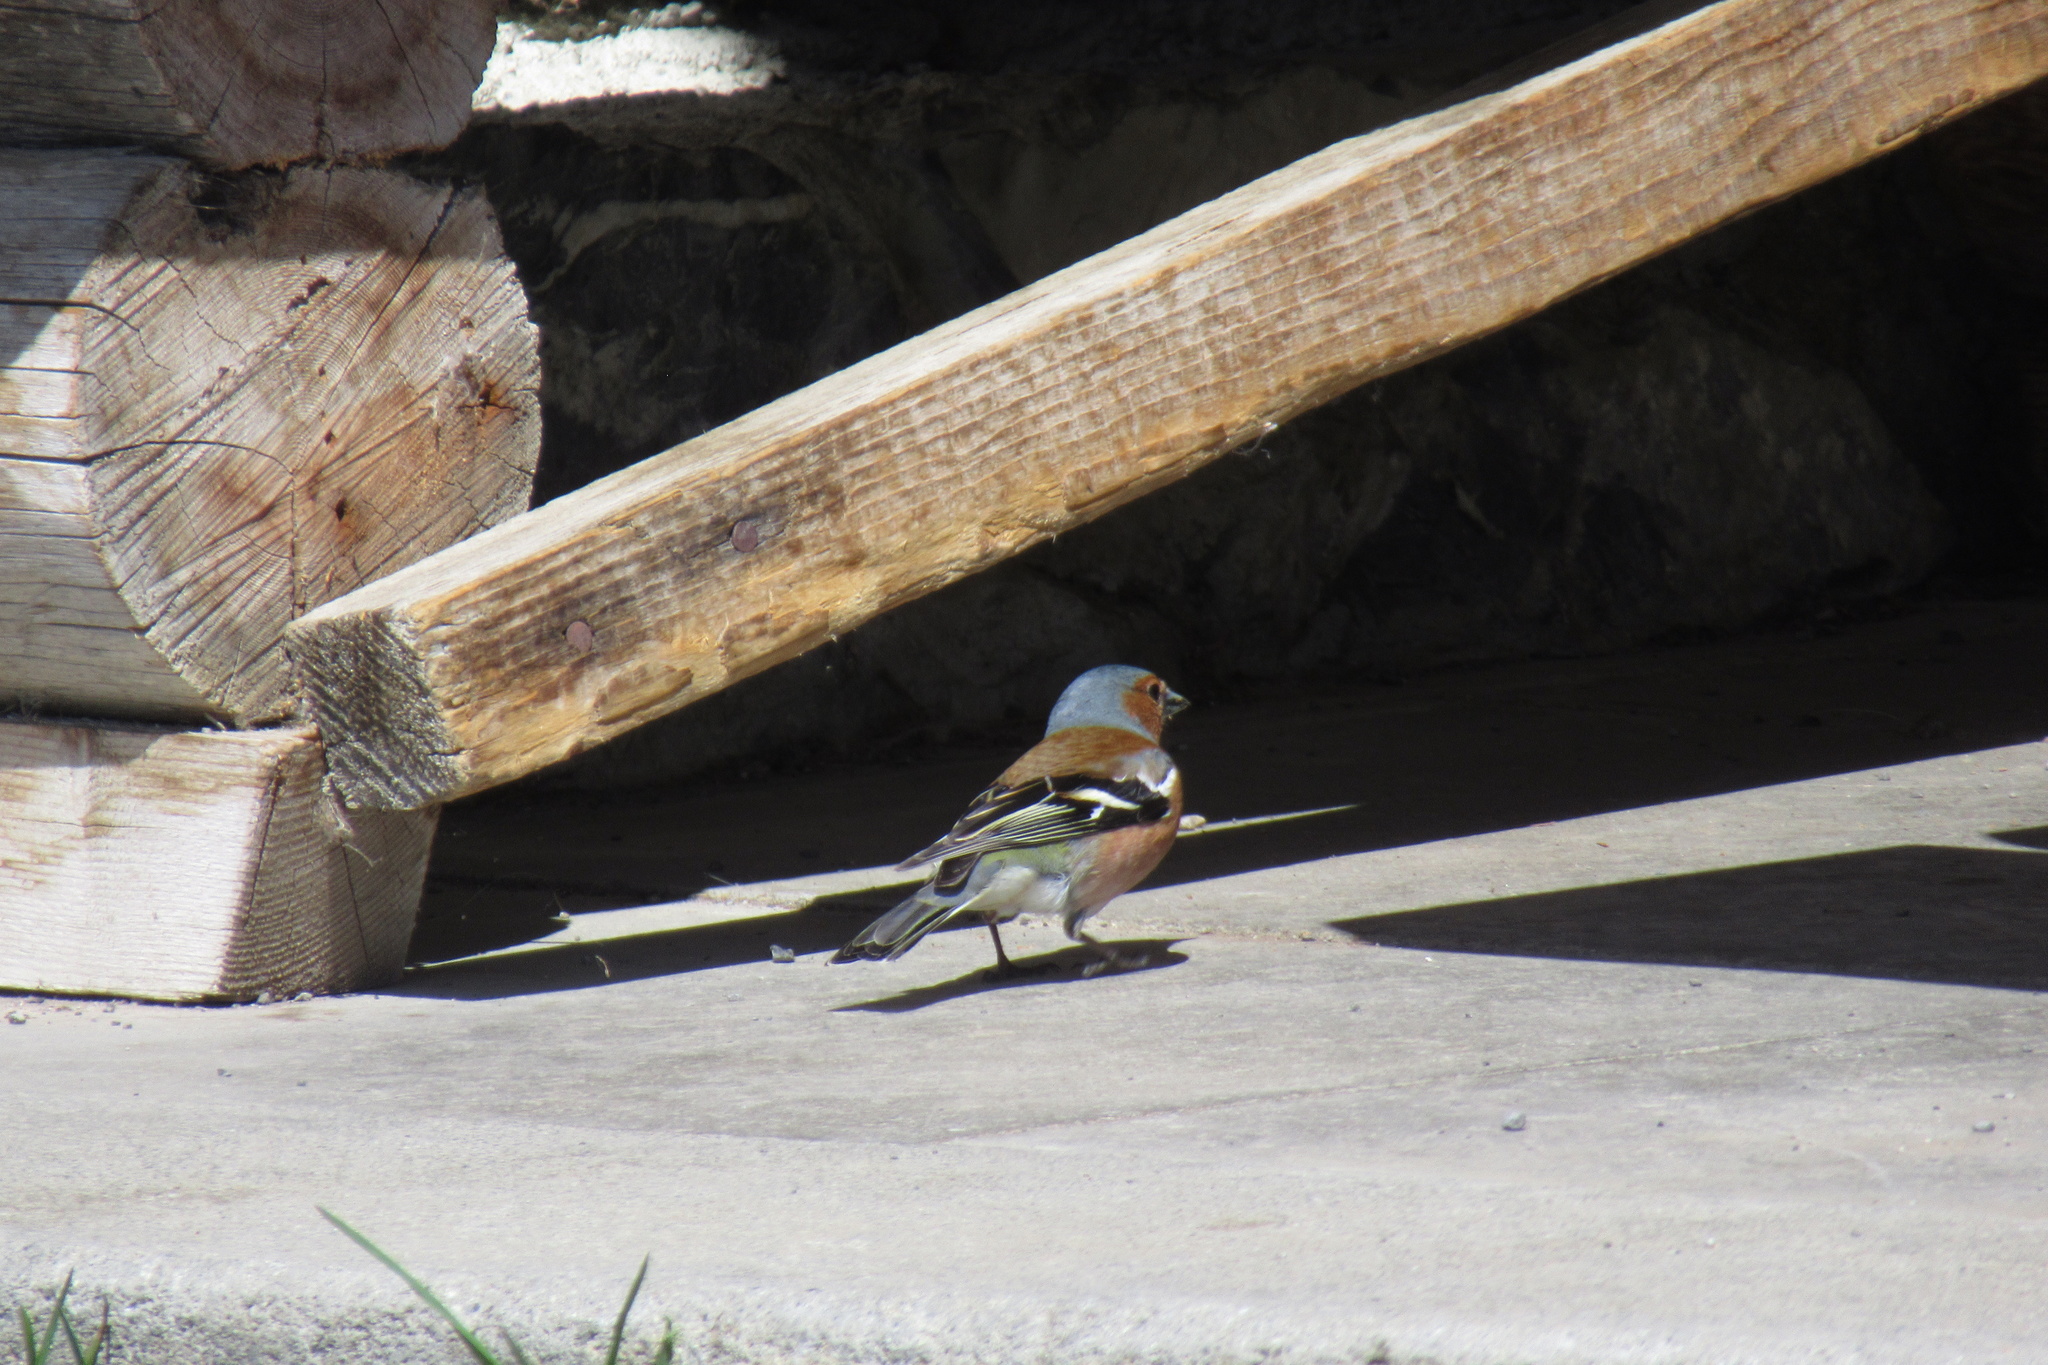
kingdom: Animalia
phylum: Chordata
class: Aves
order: Passeriformes
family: Fringillidae
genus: Fringilla
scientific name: Fringilla coelebs
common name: Common chaffinch
